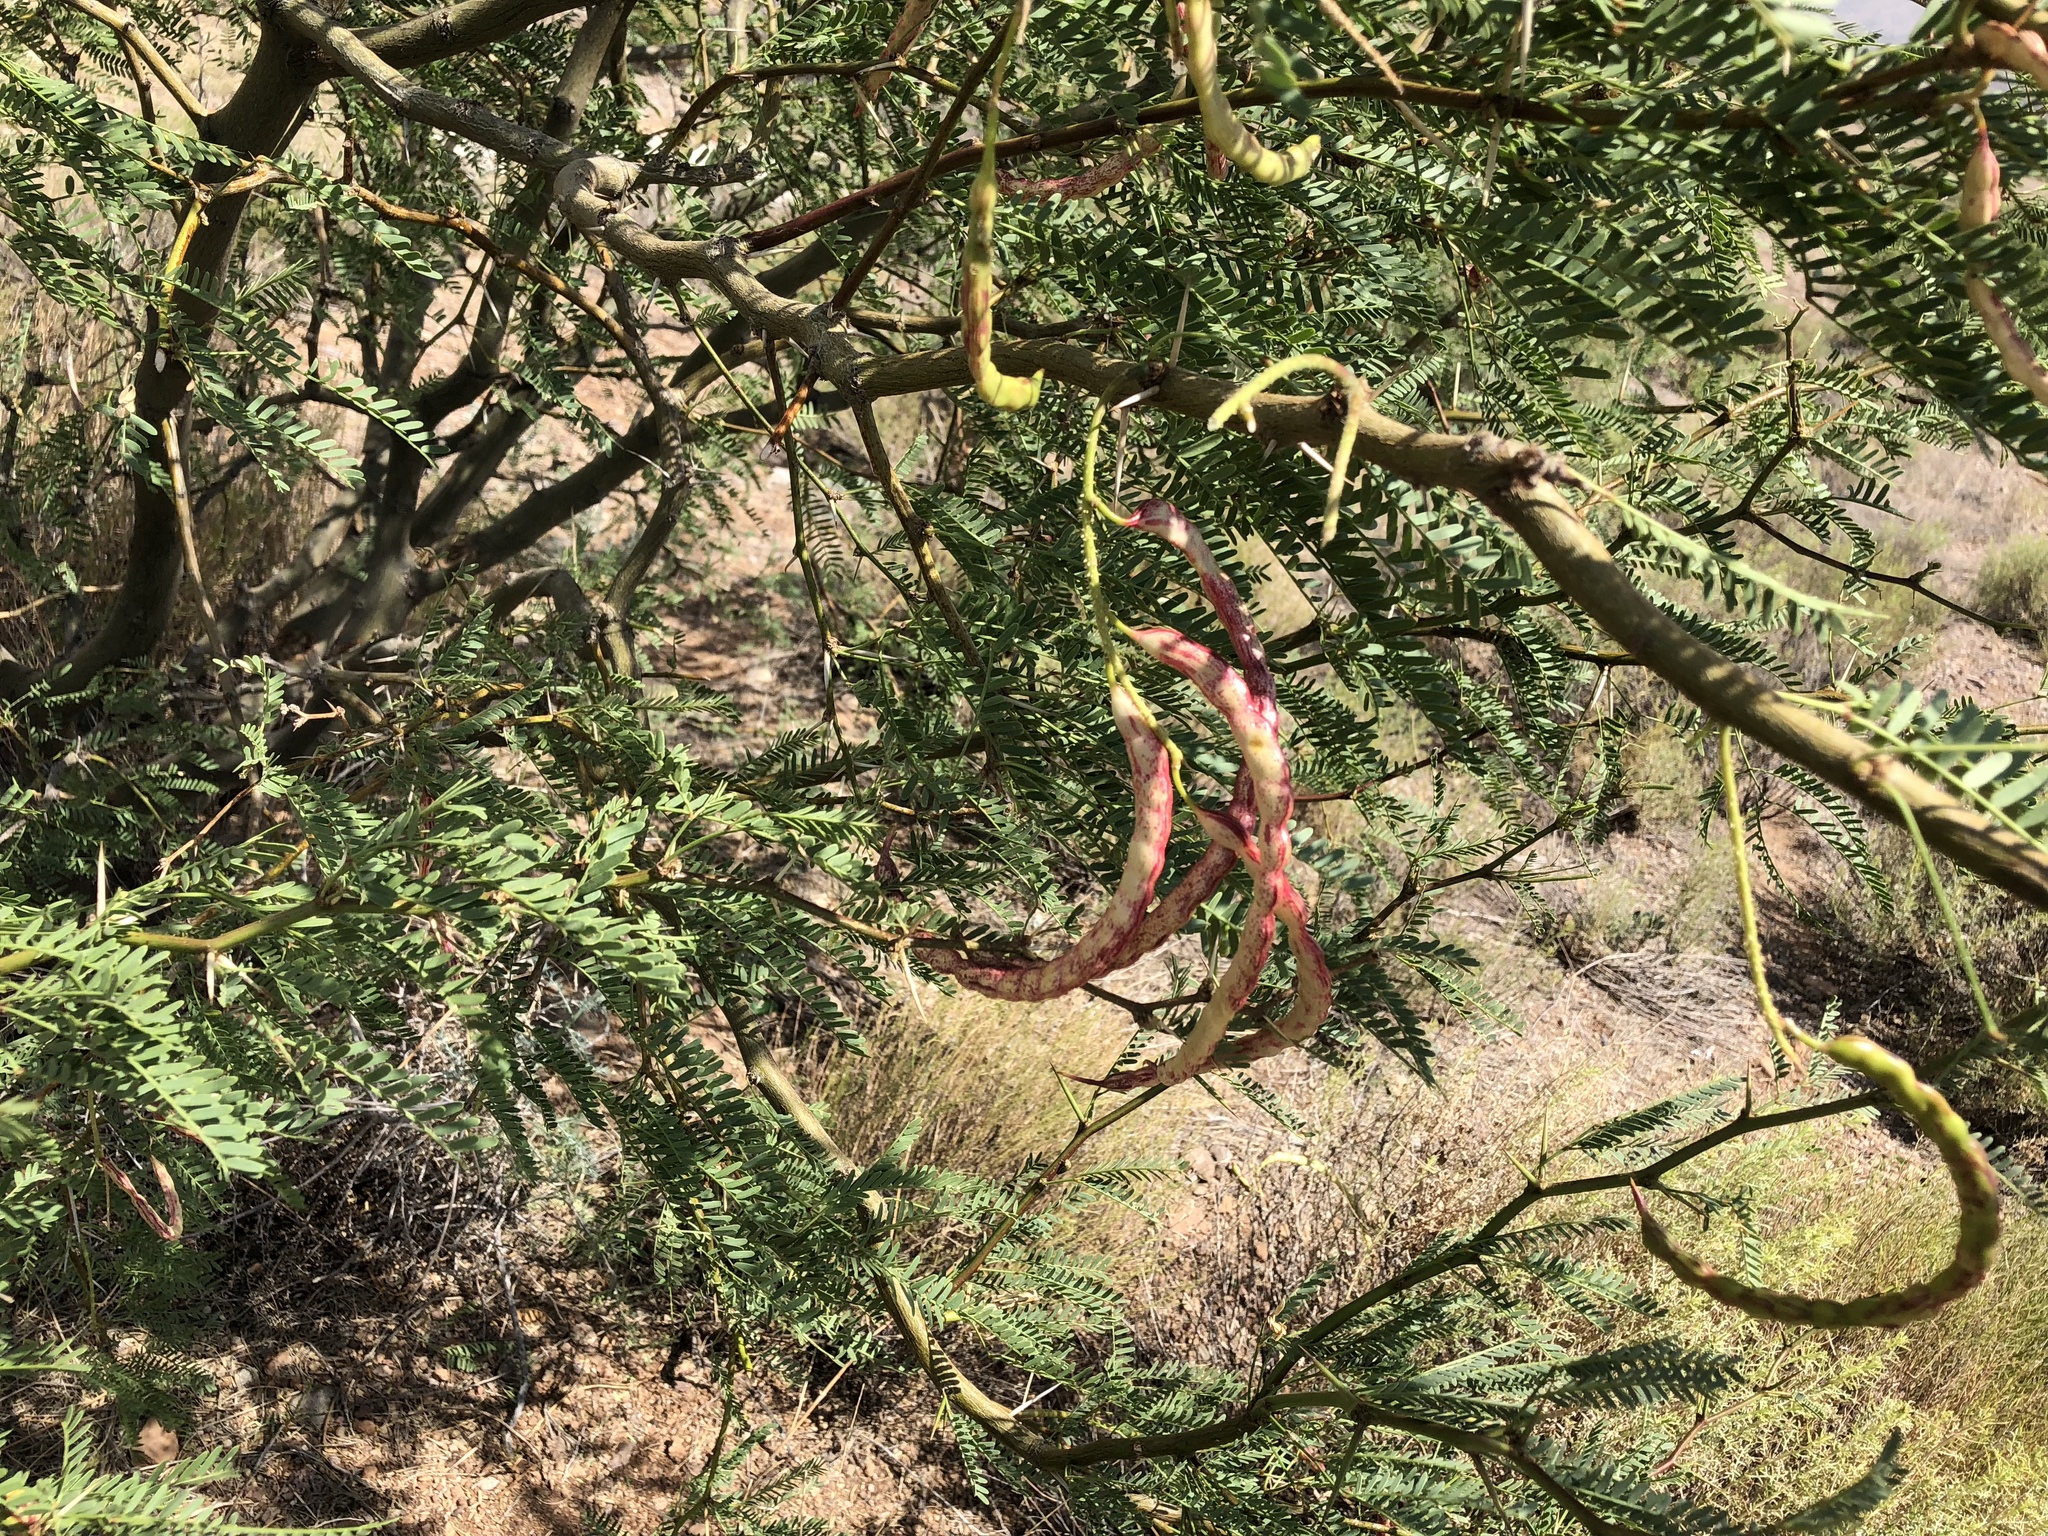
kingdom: Plantae
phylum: Tracheophyta
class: Magnoliopsida
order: Fabales
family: Fabaceae
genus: Prosopis
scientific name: Prosopis glandulosa
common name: Honey mesquite
